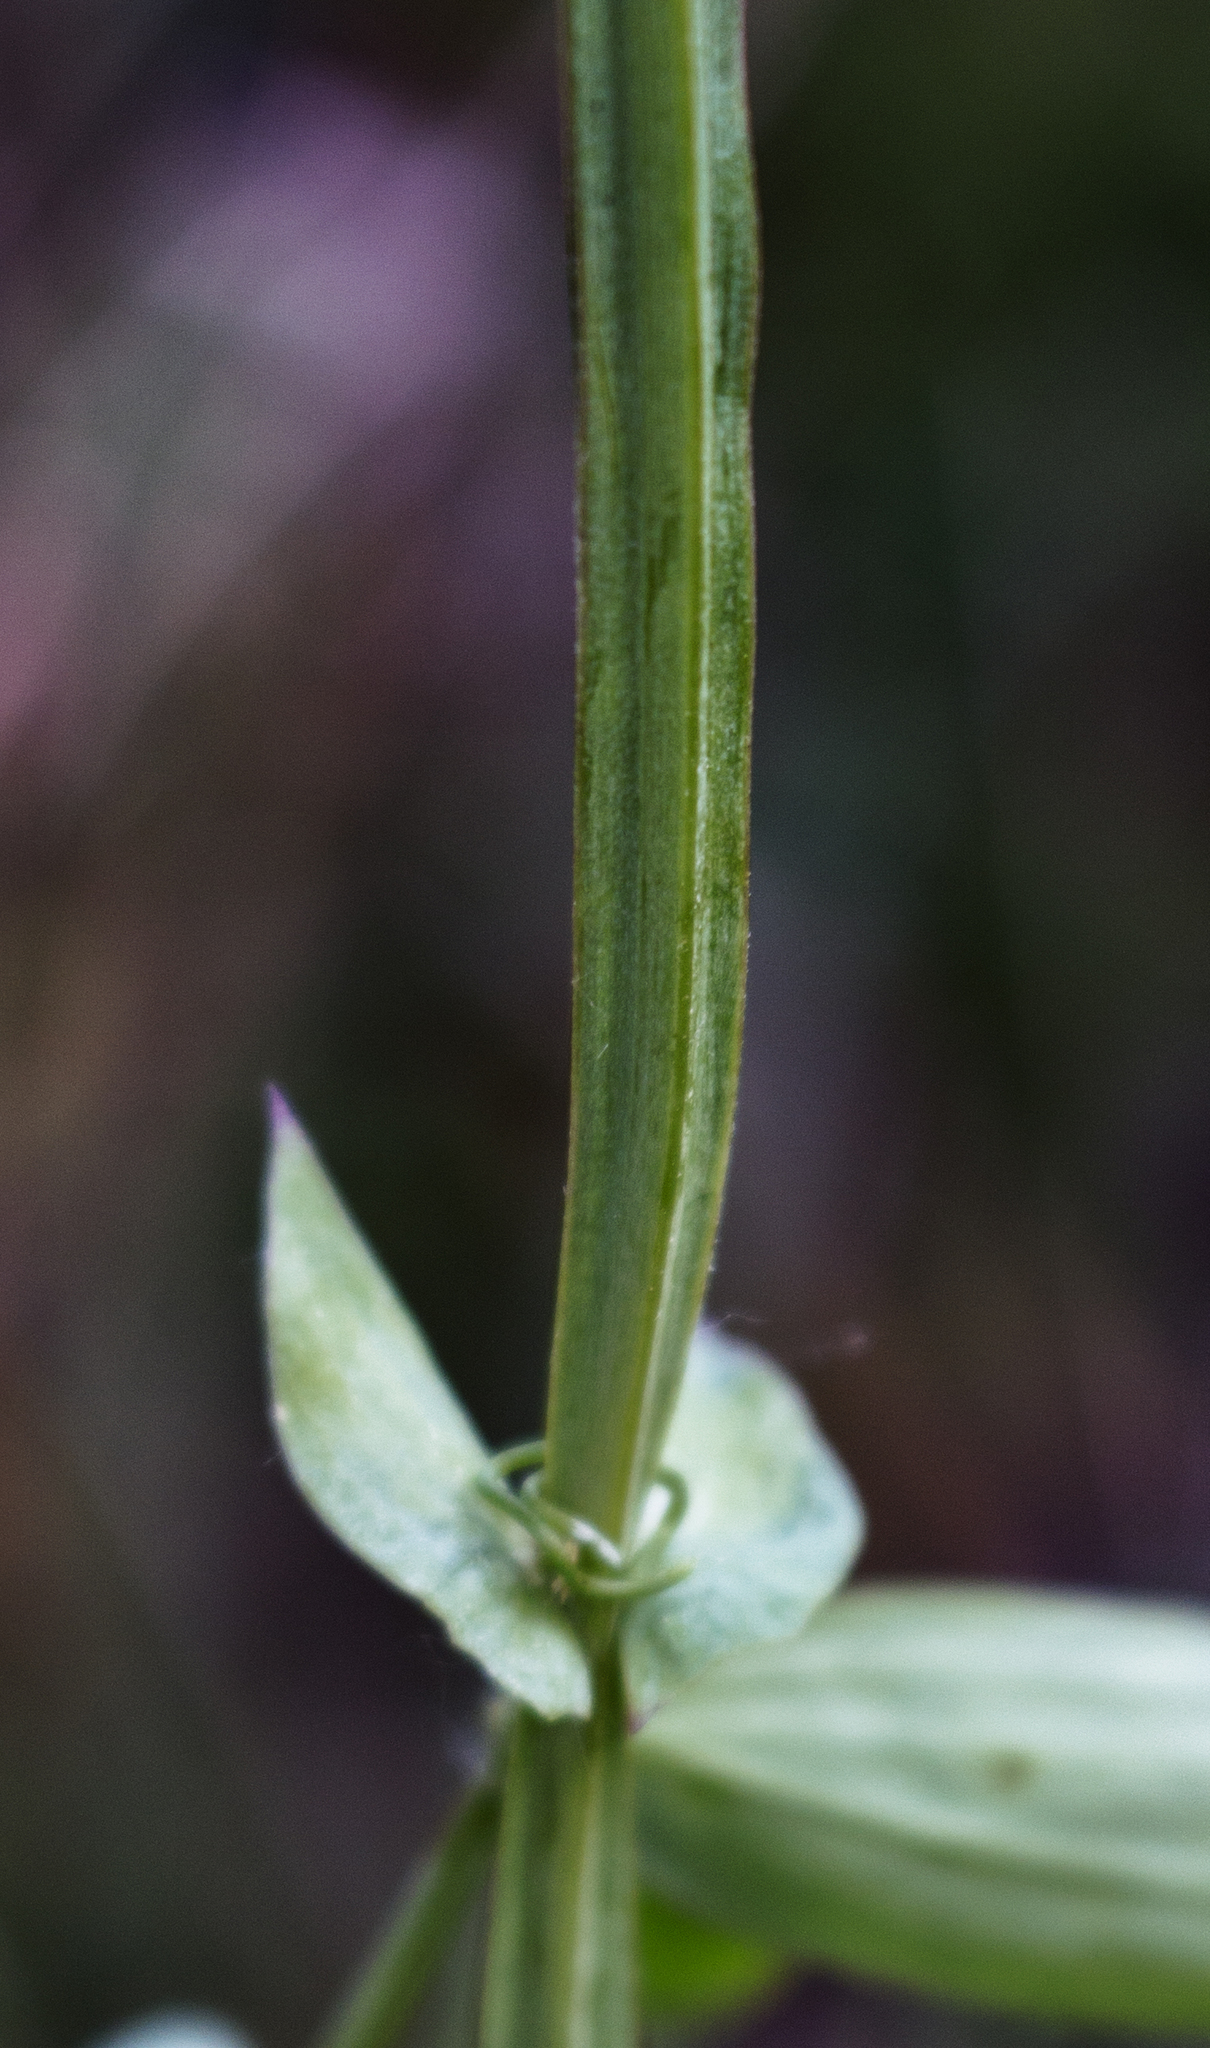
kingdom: Plantae
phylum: Tracheophyta
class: Magnoliopsida
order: Fabales
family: Fabaceae
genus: Lathyrus
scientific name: Lathyrus palustris
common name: Marsh pea
